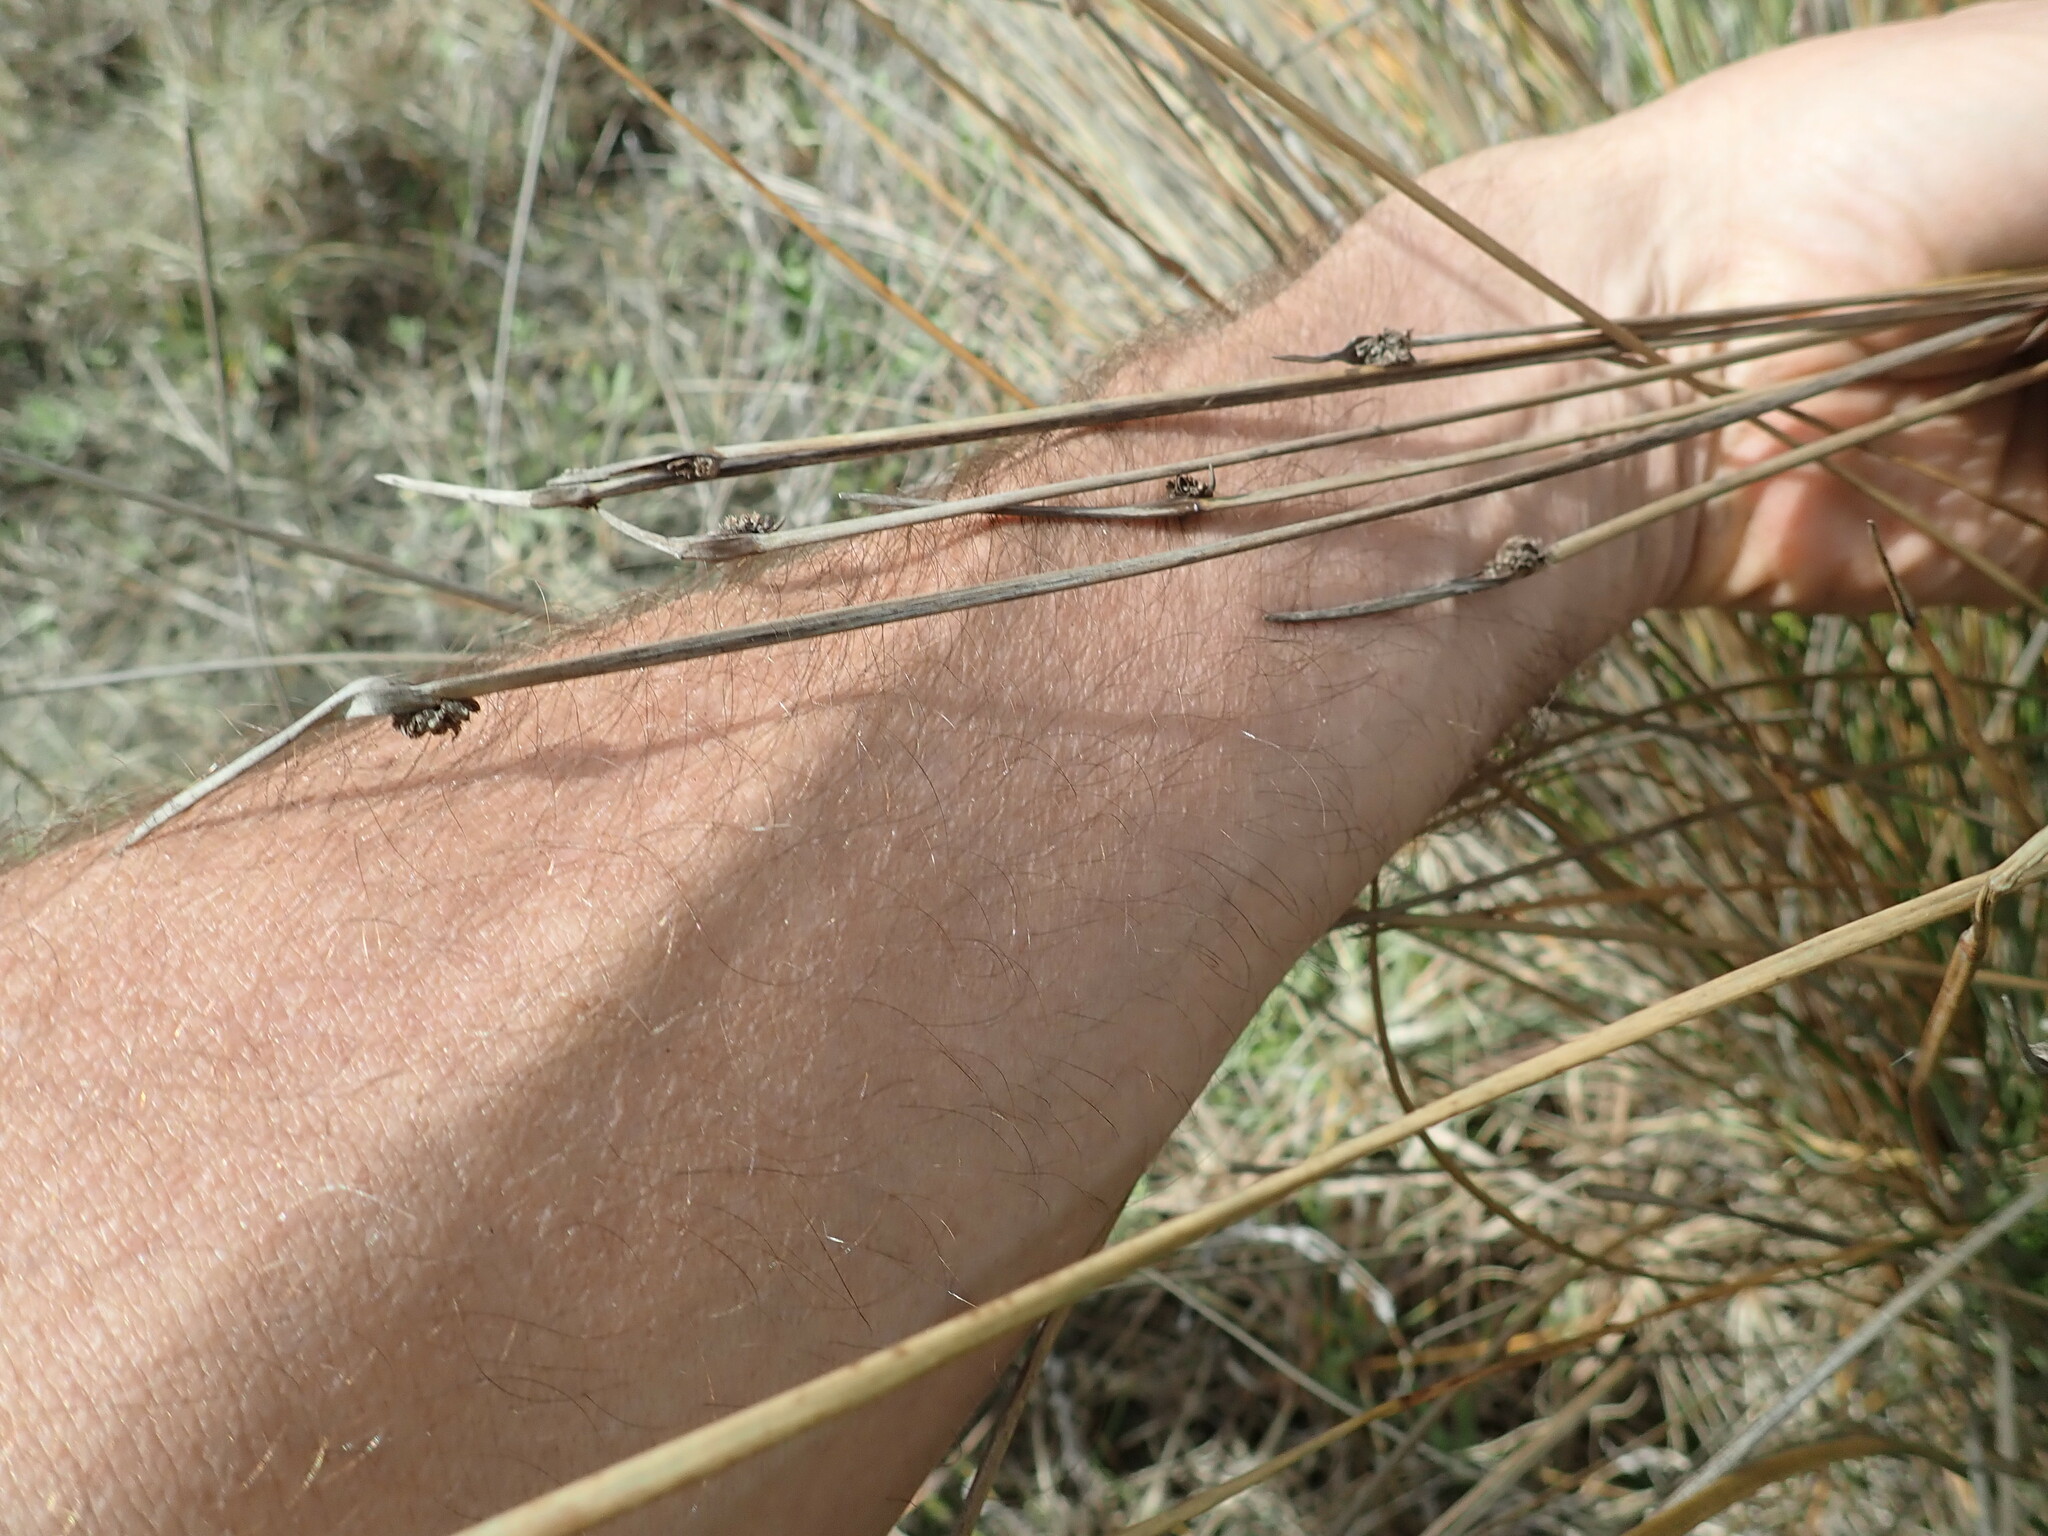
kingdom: Plantae
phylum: Tracheophyta
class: Liliopsida
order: Poales
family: Cyperaceae
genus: Ficinia
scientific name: Ficinia nodosa
